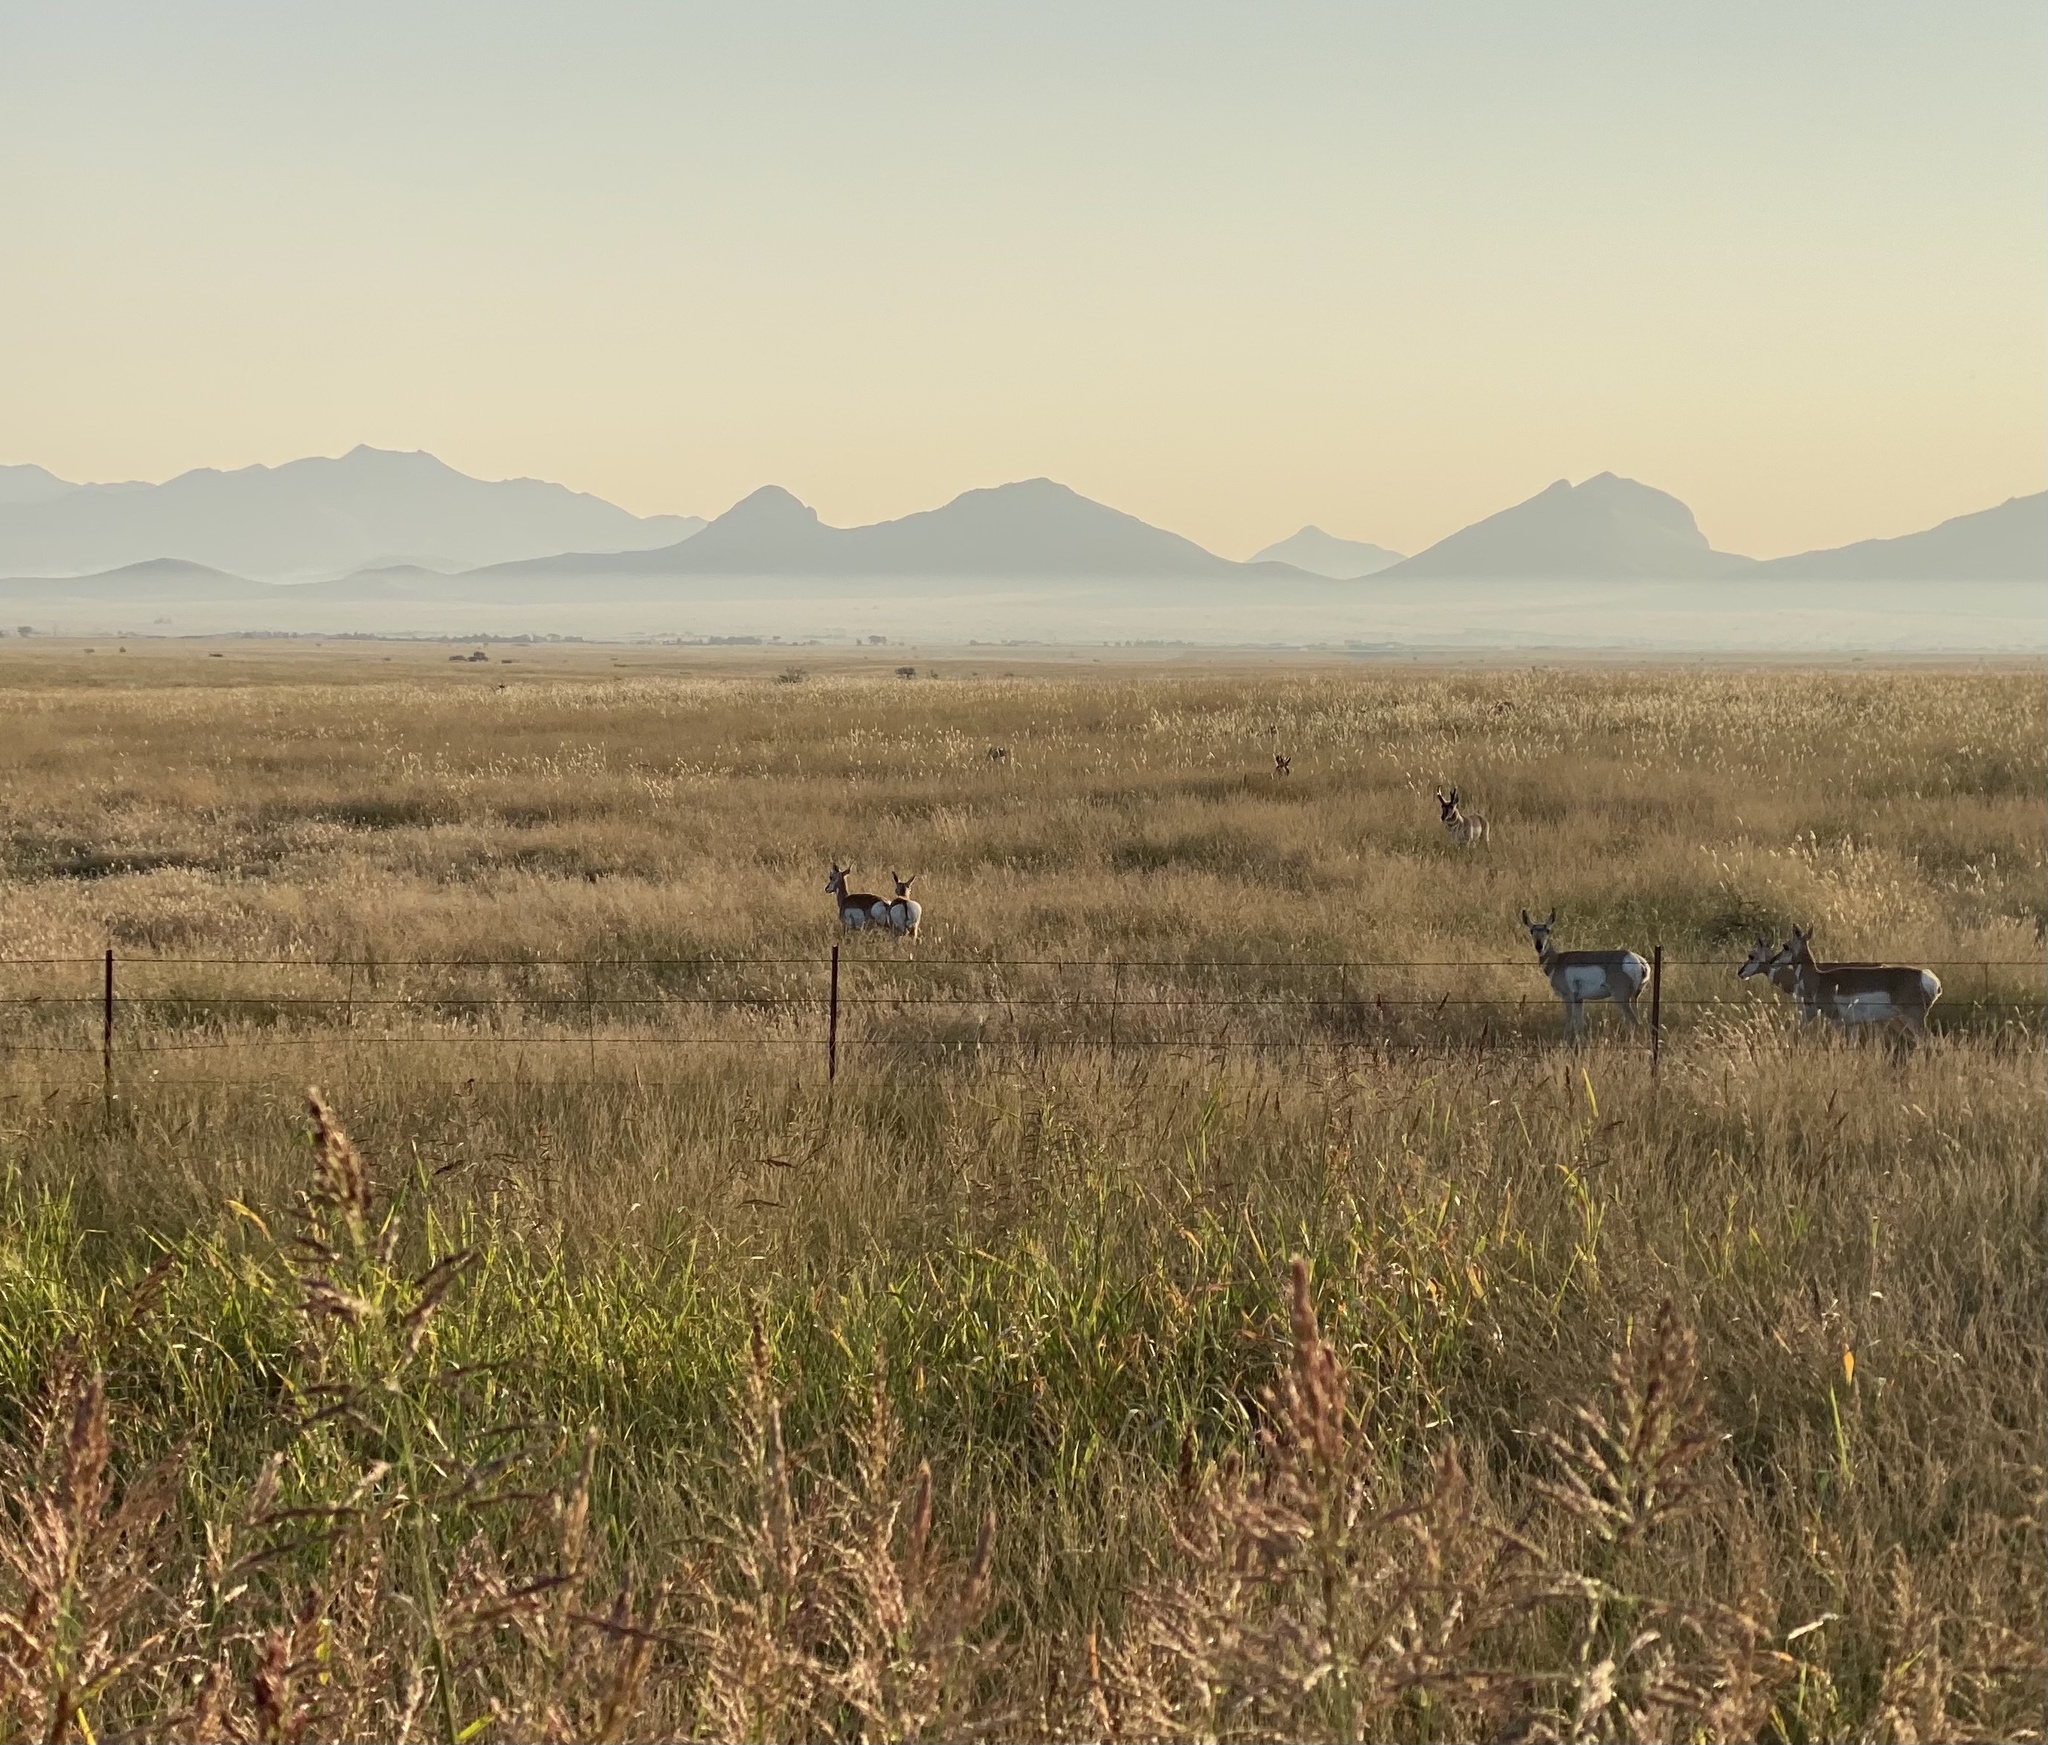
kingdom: Animalia
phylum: Chordata
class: Mammalia
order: Artiodactyla
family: Antilocapridae
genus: Antilocapra
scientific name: Antilocapra americana
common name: Pronghorn
